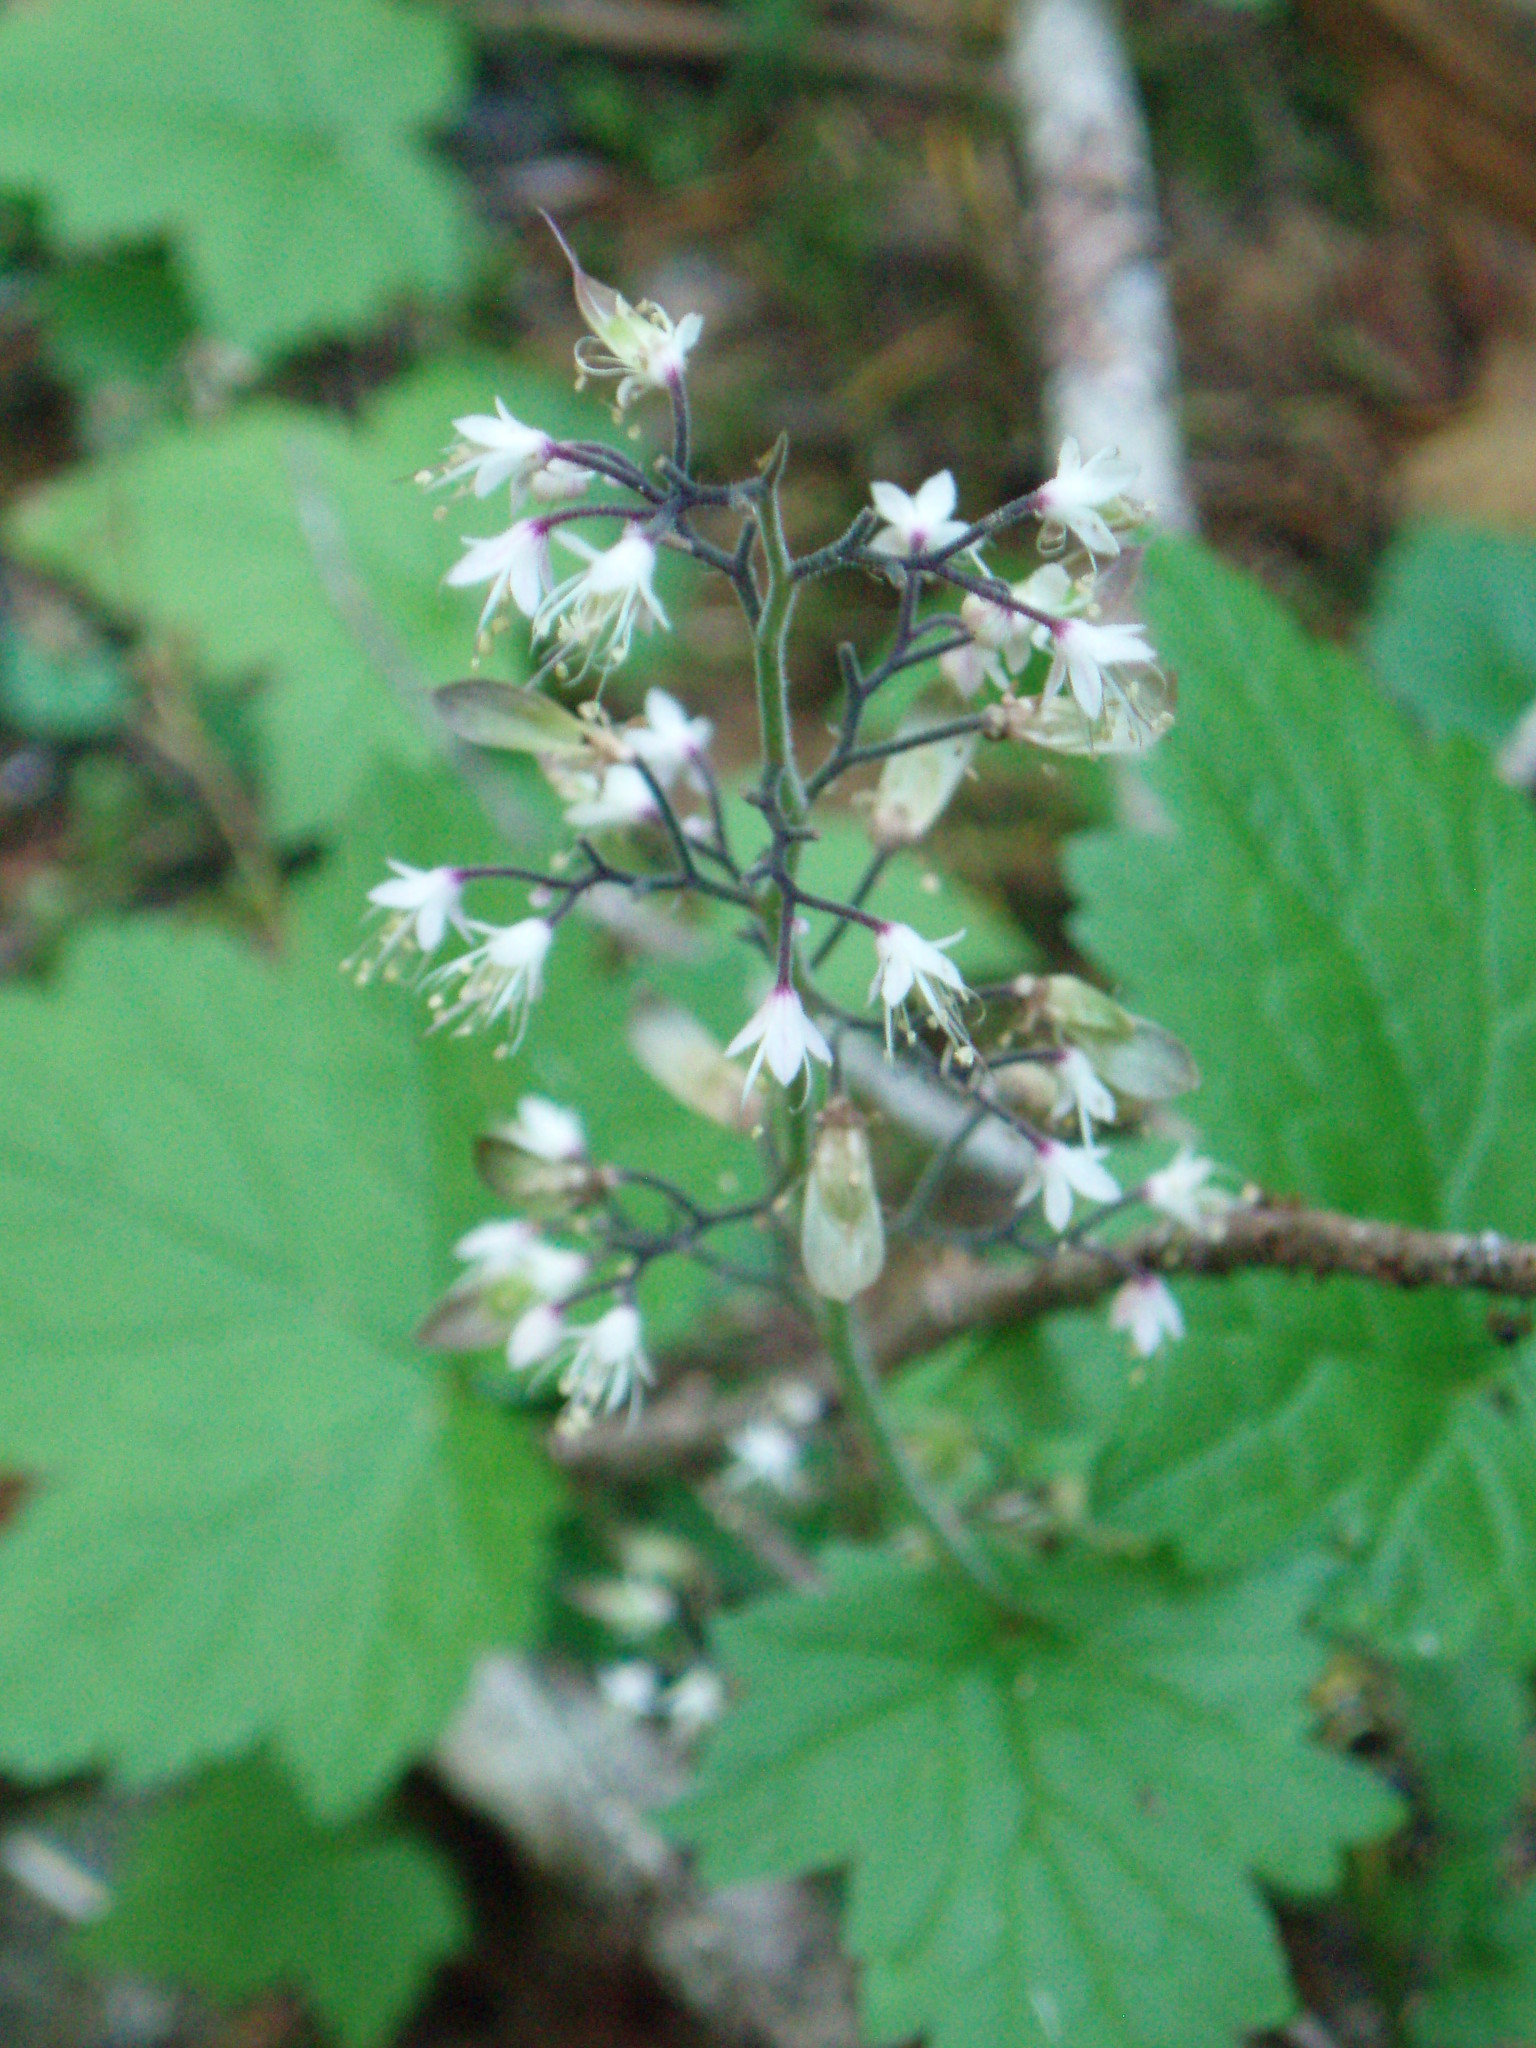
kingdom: Plantae
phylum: Tracheophyta
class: Magnoliopsida
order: Saxifragales
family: Saxifragaceae
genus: Tiarella
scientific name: Tiarella trifoliata
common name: Sugar-scoop
